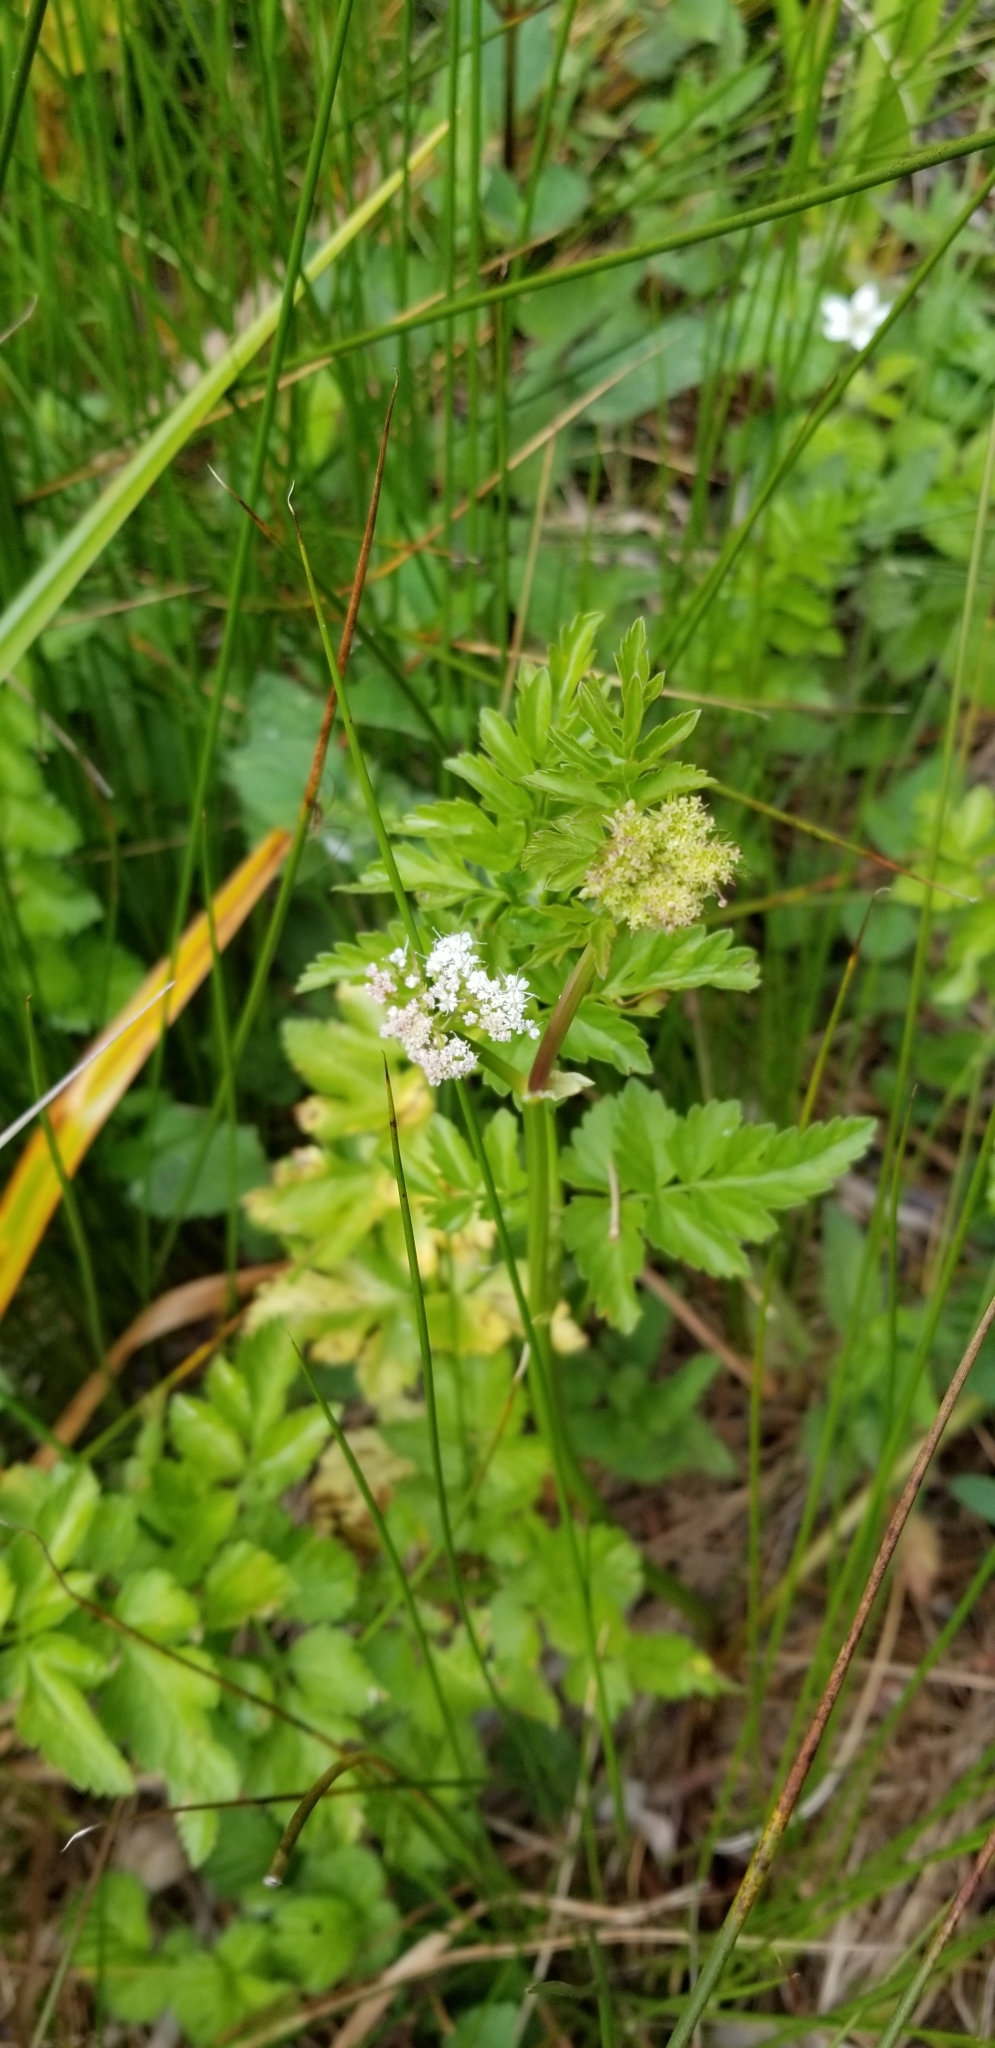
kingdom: Plantae
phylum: Tracheophyta
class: Magnoliopsida
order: Apiales
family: Apiaceae
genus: Oenanthe
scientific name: Oenanthe sarmentosa
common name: American water-parsley
